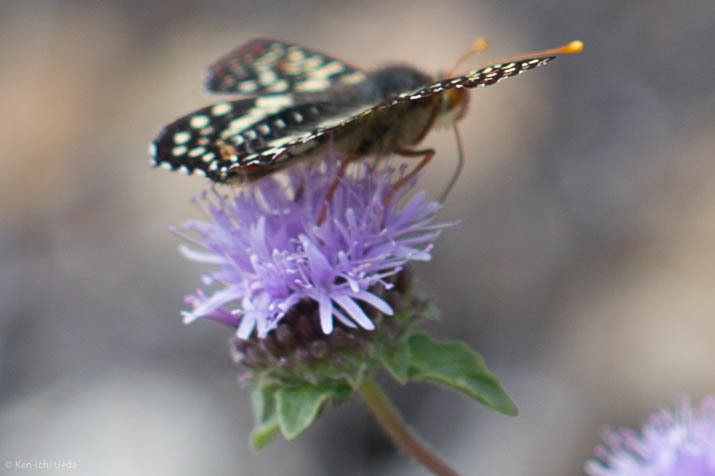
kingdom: Animalia
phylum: Arthropoda
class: Insecta
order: Lepidoptera
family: Nymphalidae
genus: Occidryas
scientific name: Occidryas chalcedona
